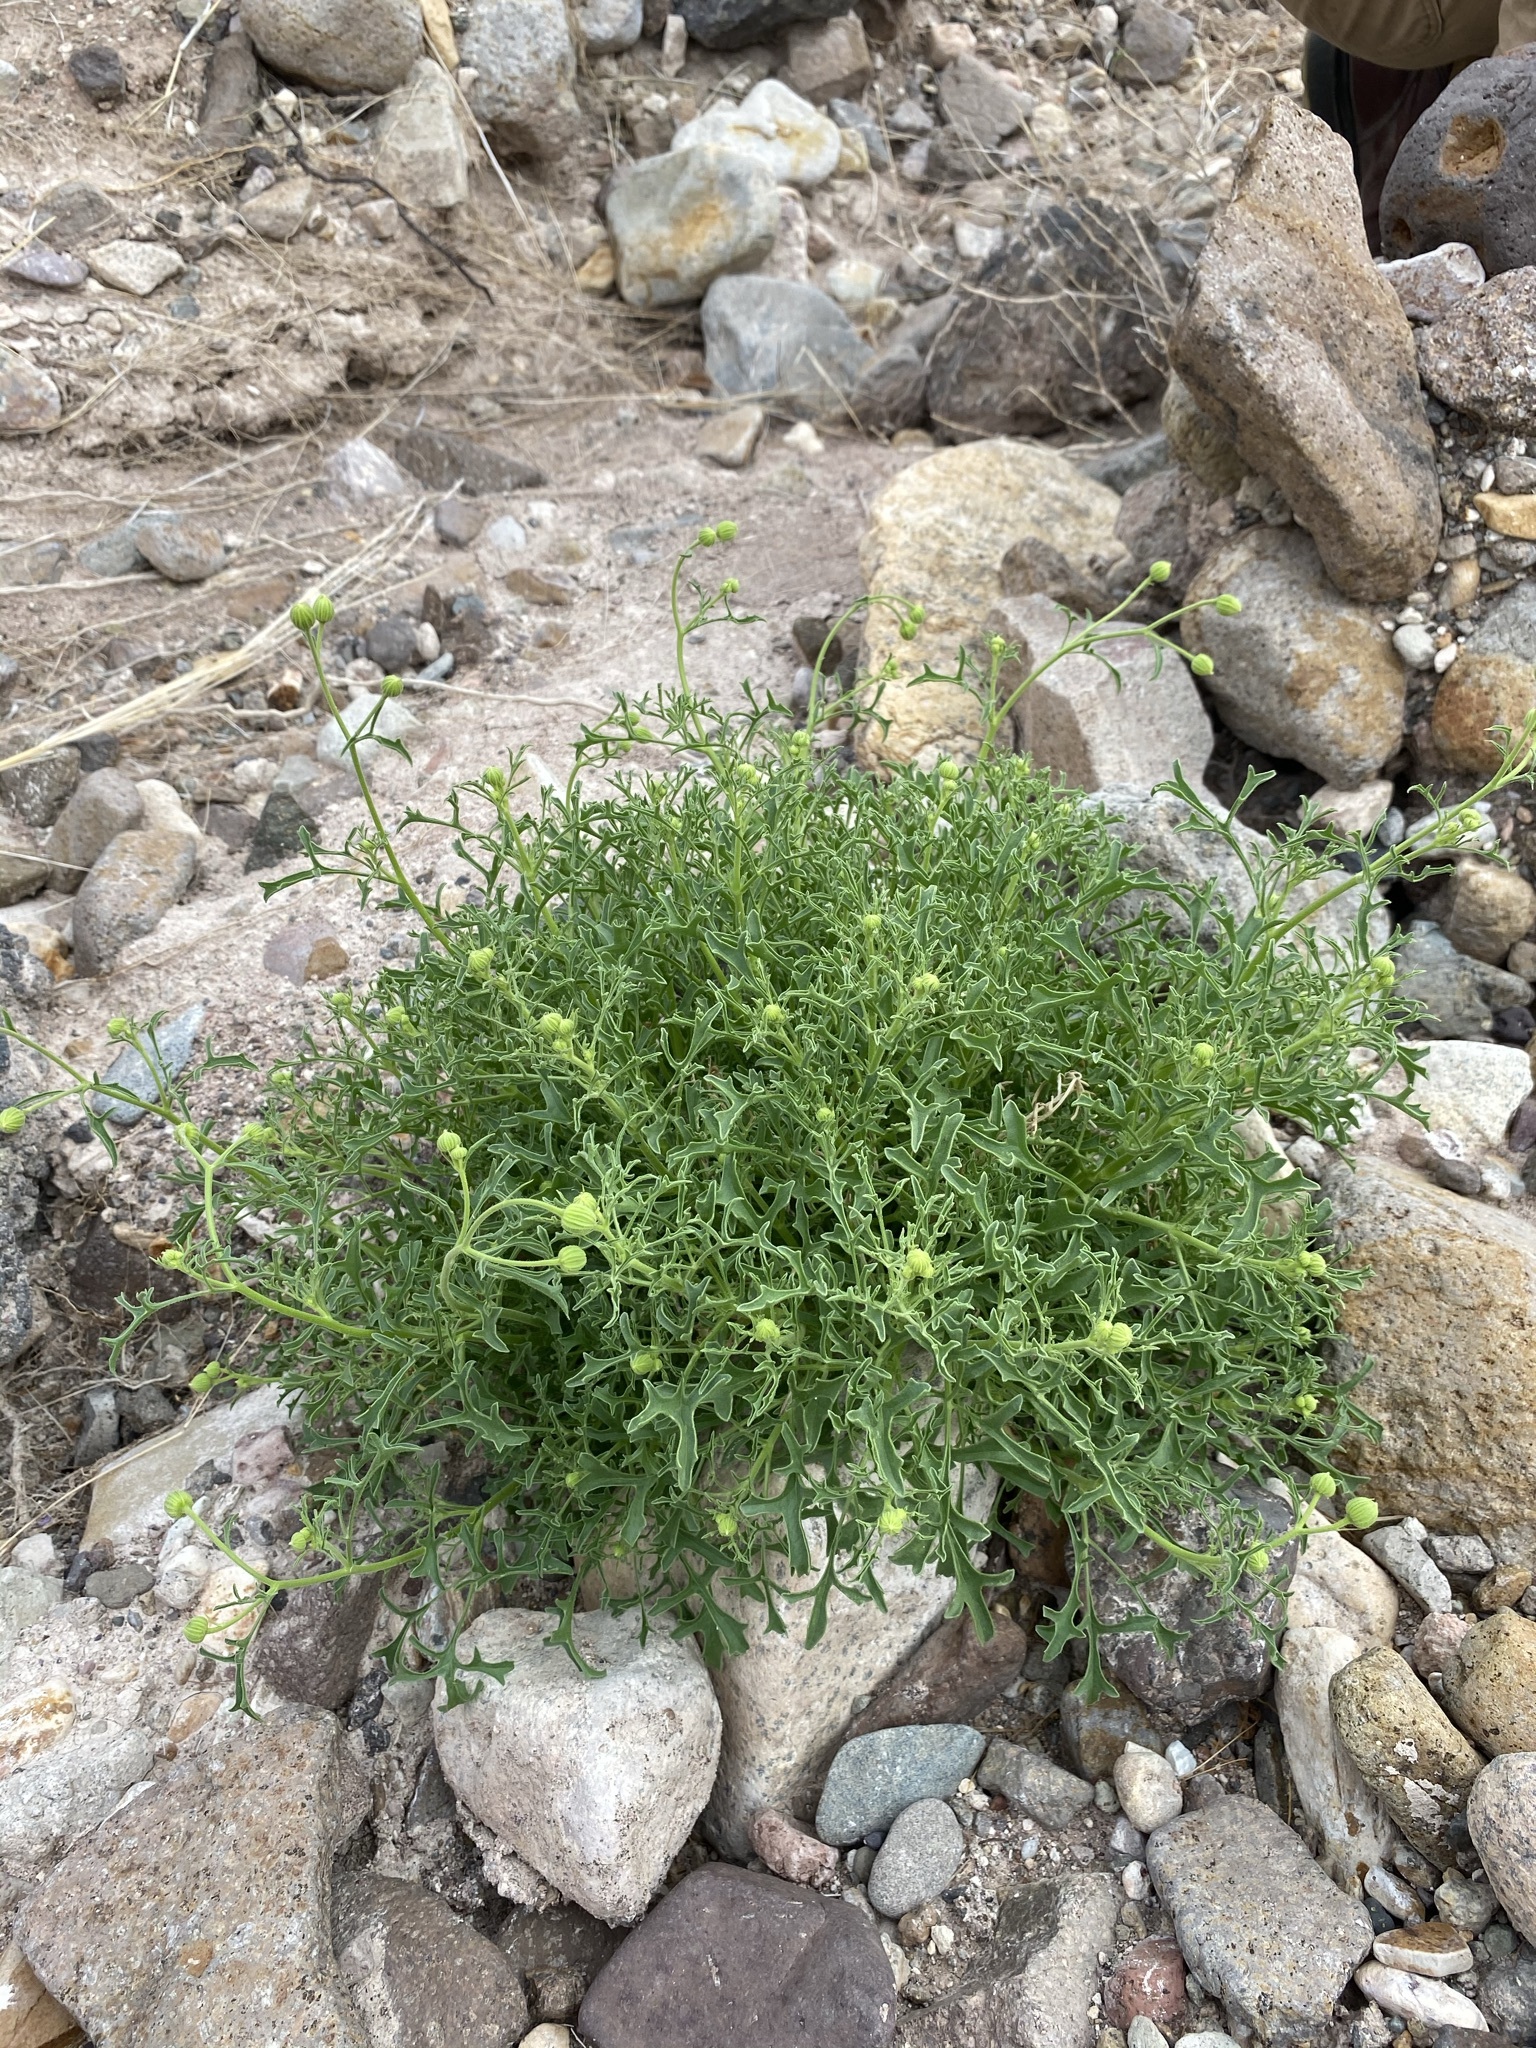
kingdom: Plantae
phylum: Tracheophyta
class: Magnoliopsida
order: Asterales
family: Asteraceae
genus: Laphamia
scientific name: Laphamia vaseyi
